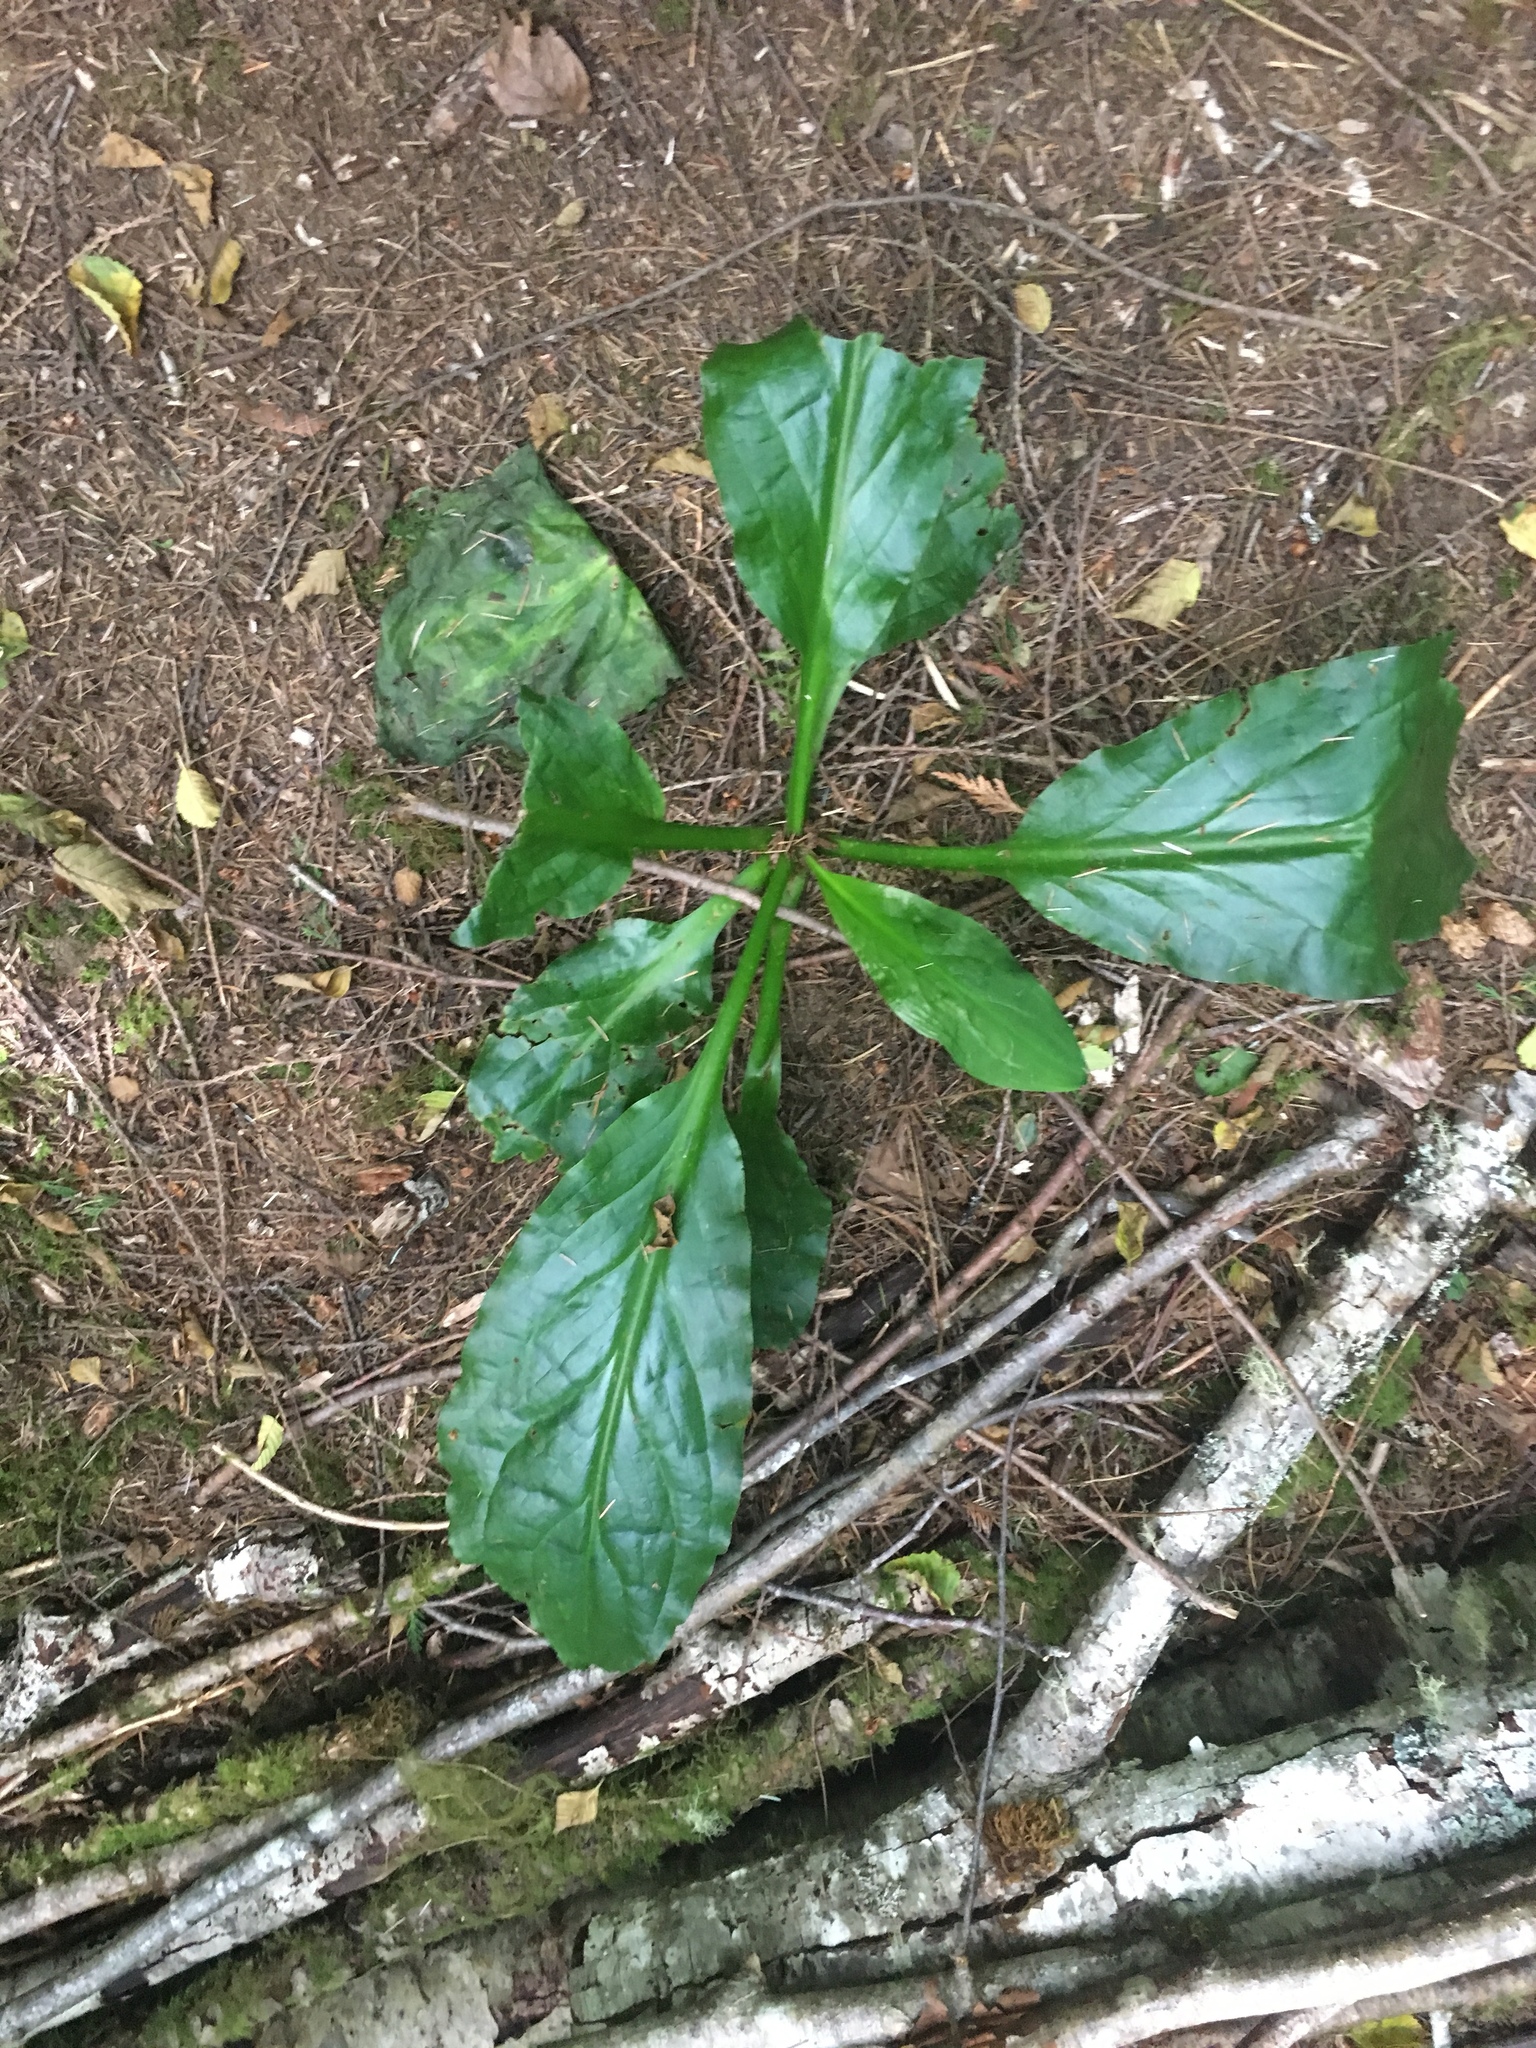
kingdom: Plantae
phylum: Tracheophyta
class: Liliopsida
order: Alismatales
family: Araceae
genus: Lysichiton
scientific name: Lysichiton americanus
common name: American skunk cabbage
